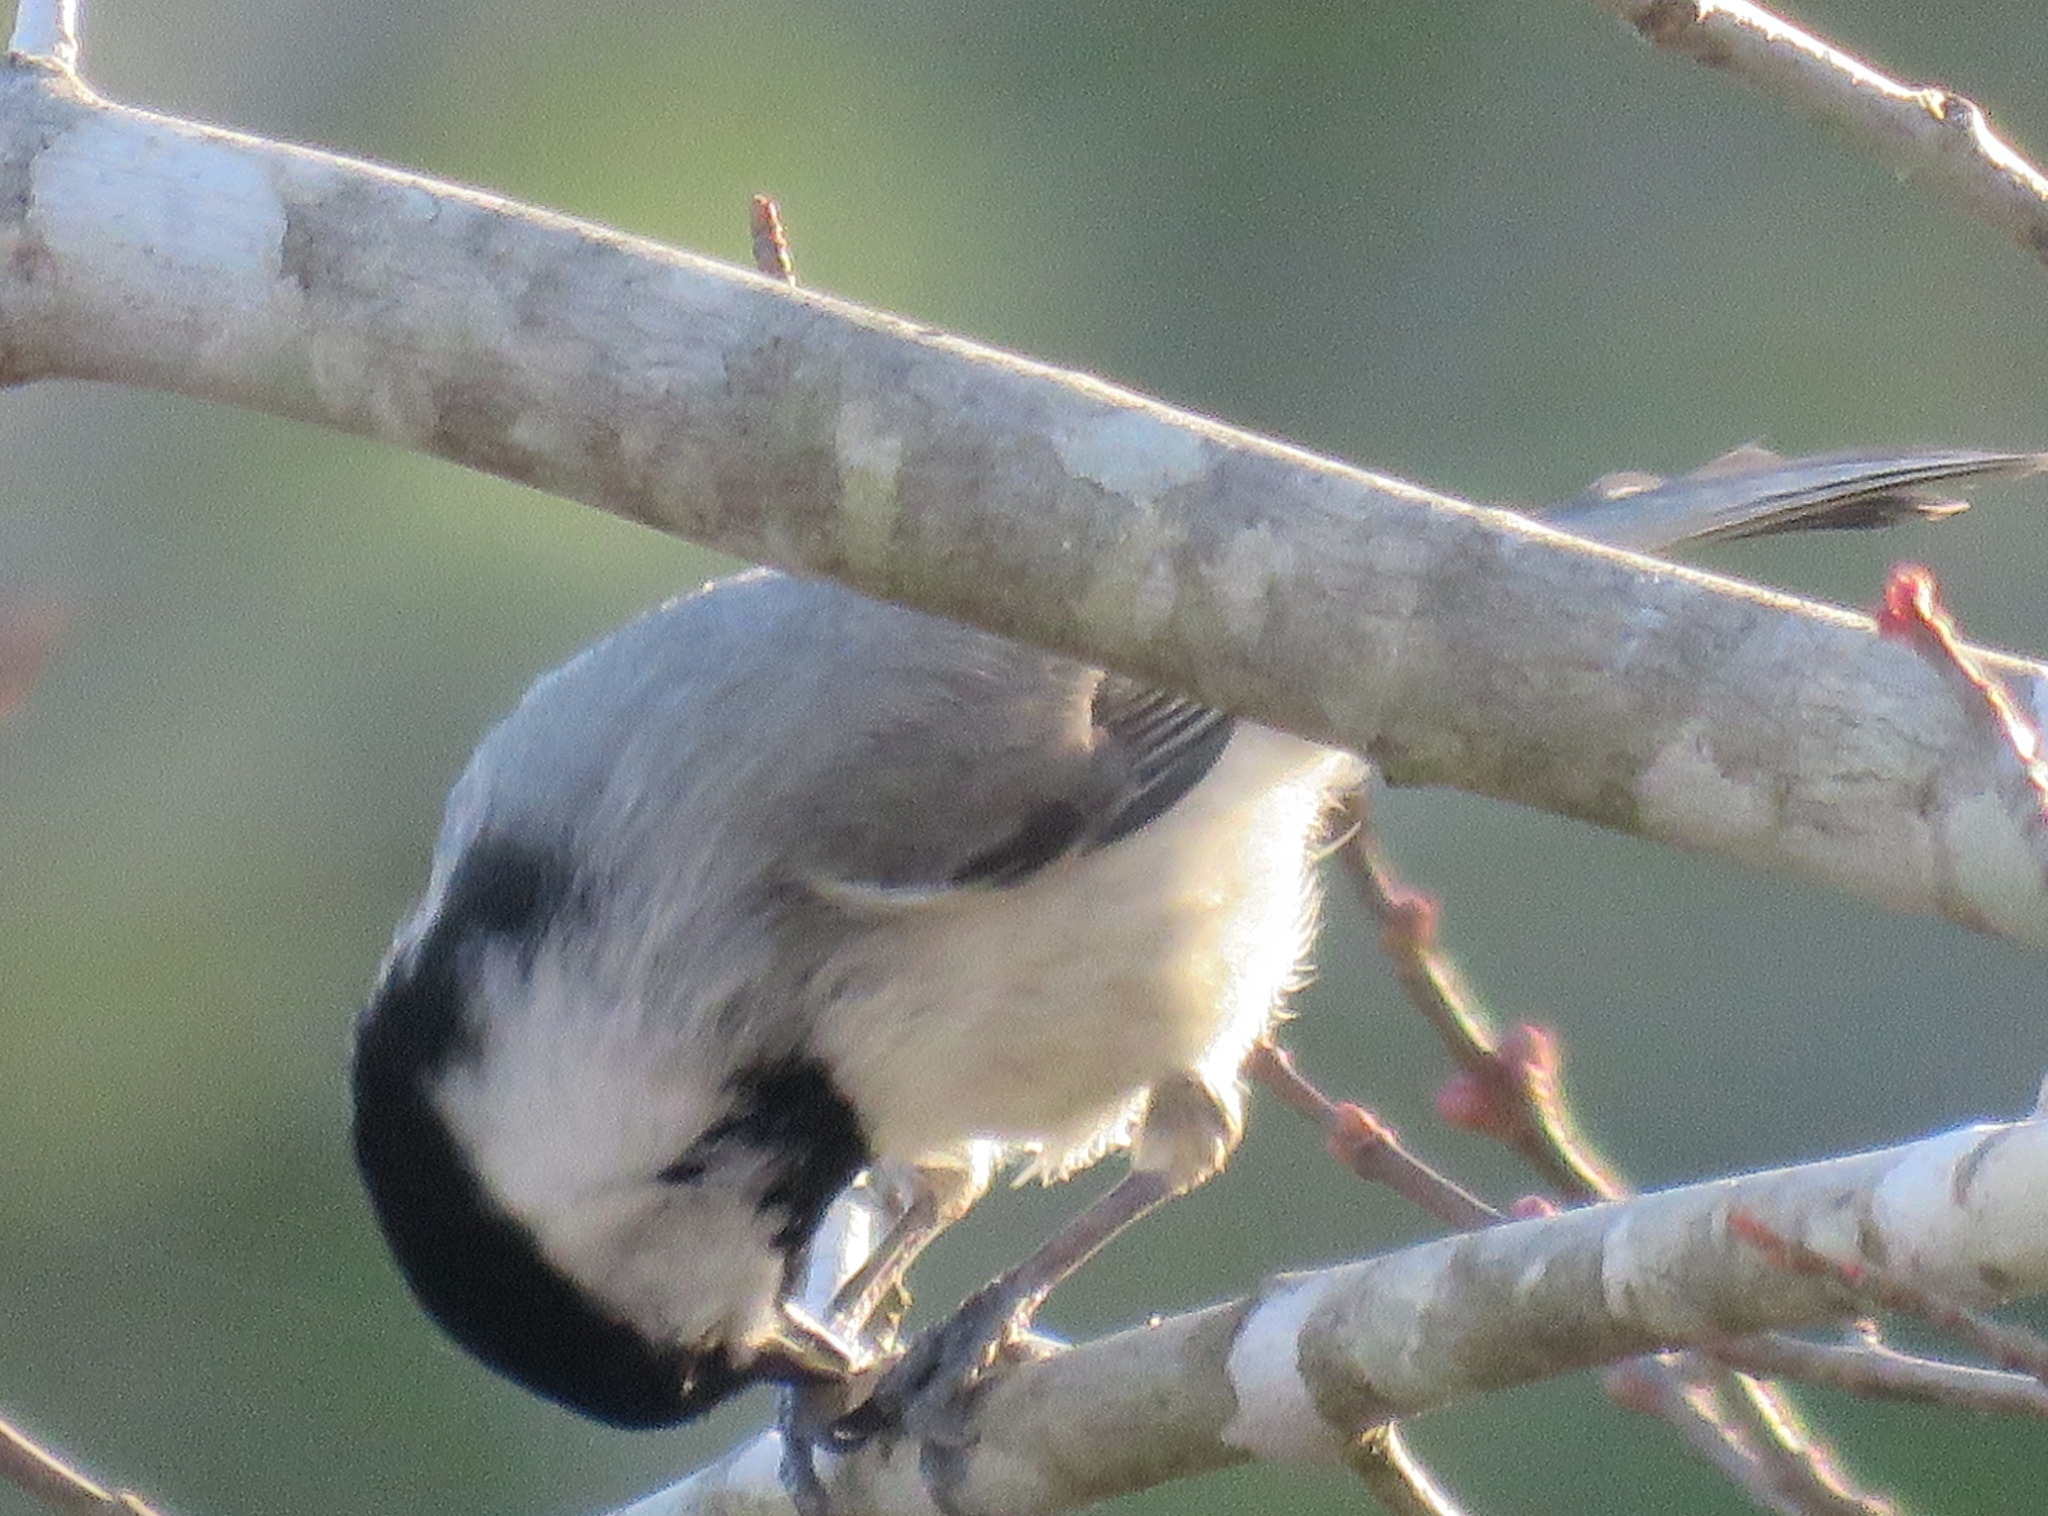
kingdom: Animalia
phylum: Chordata
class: Aves
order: Passeriformes
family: Paridae
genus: Poecile
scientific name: Poecile carolinensis
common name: Carolina chickadee
